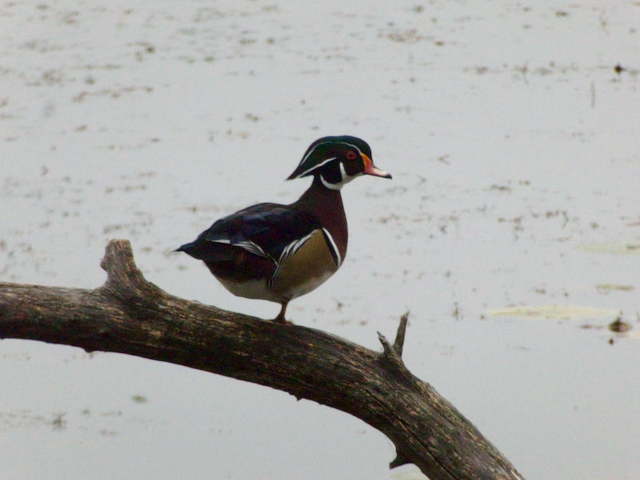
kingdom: Animalia
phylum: Chordata
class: Aves
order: Anseriformes
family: Anatidae
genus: Aix
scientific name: Aix sponsa
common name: Wood duck
